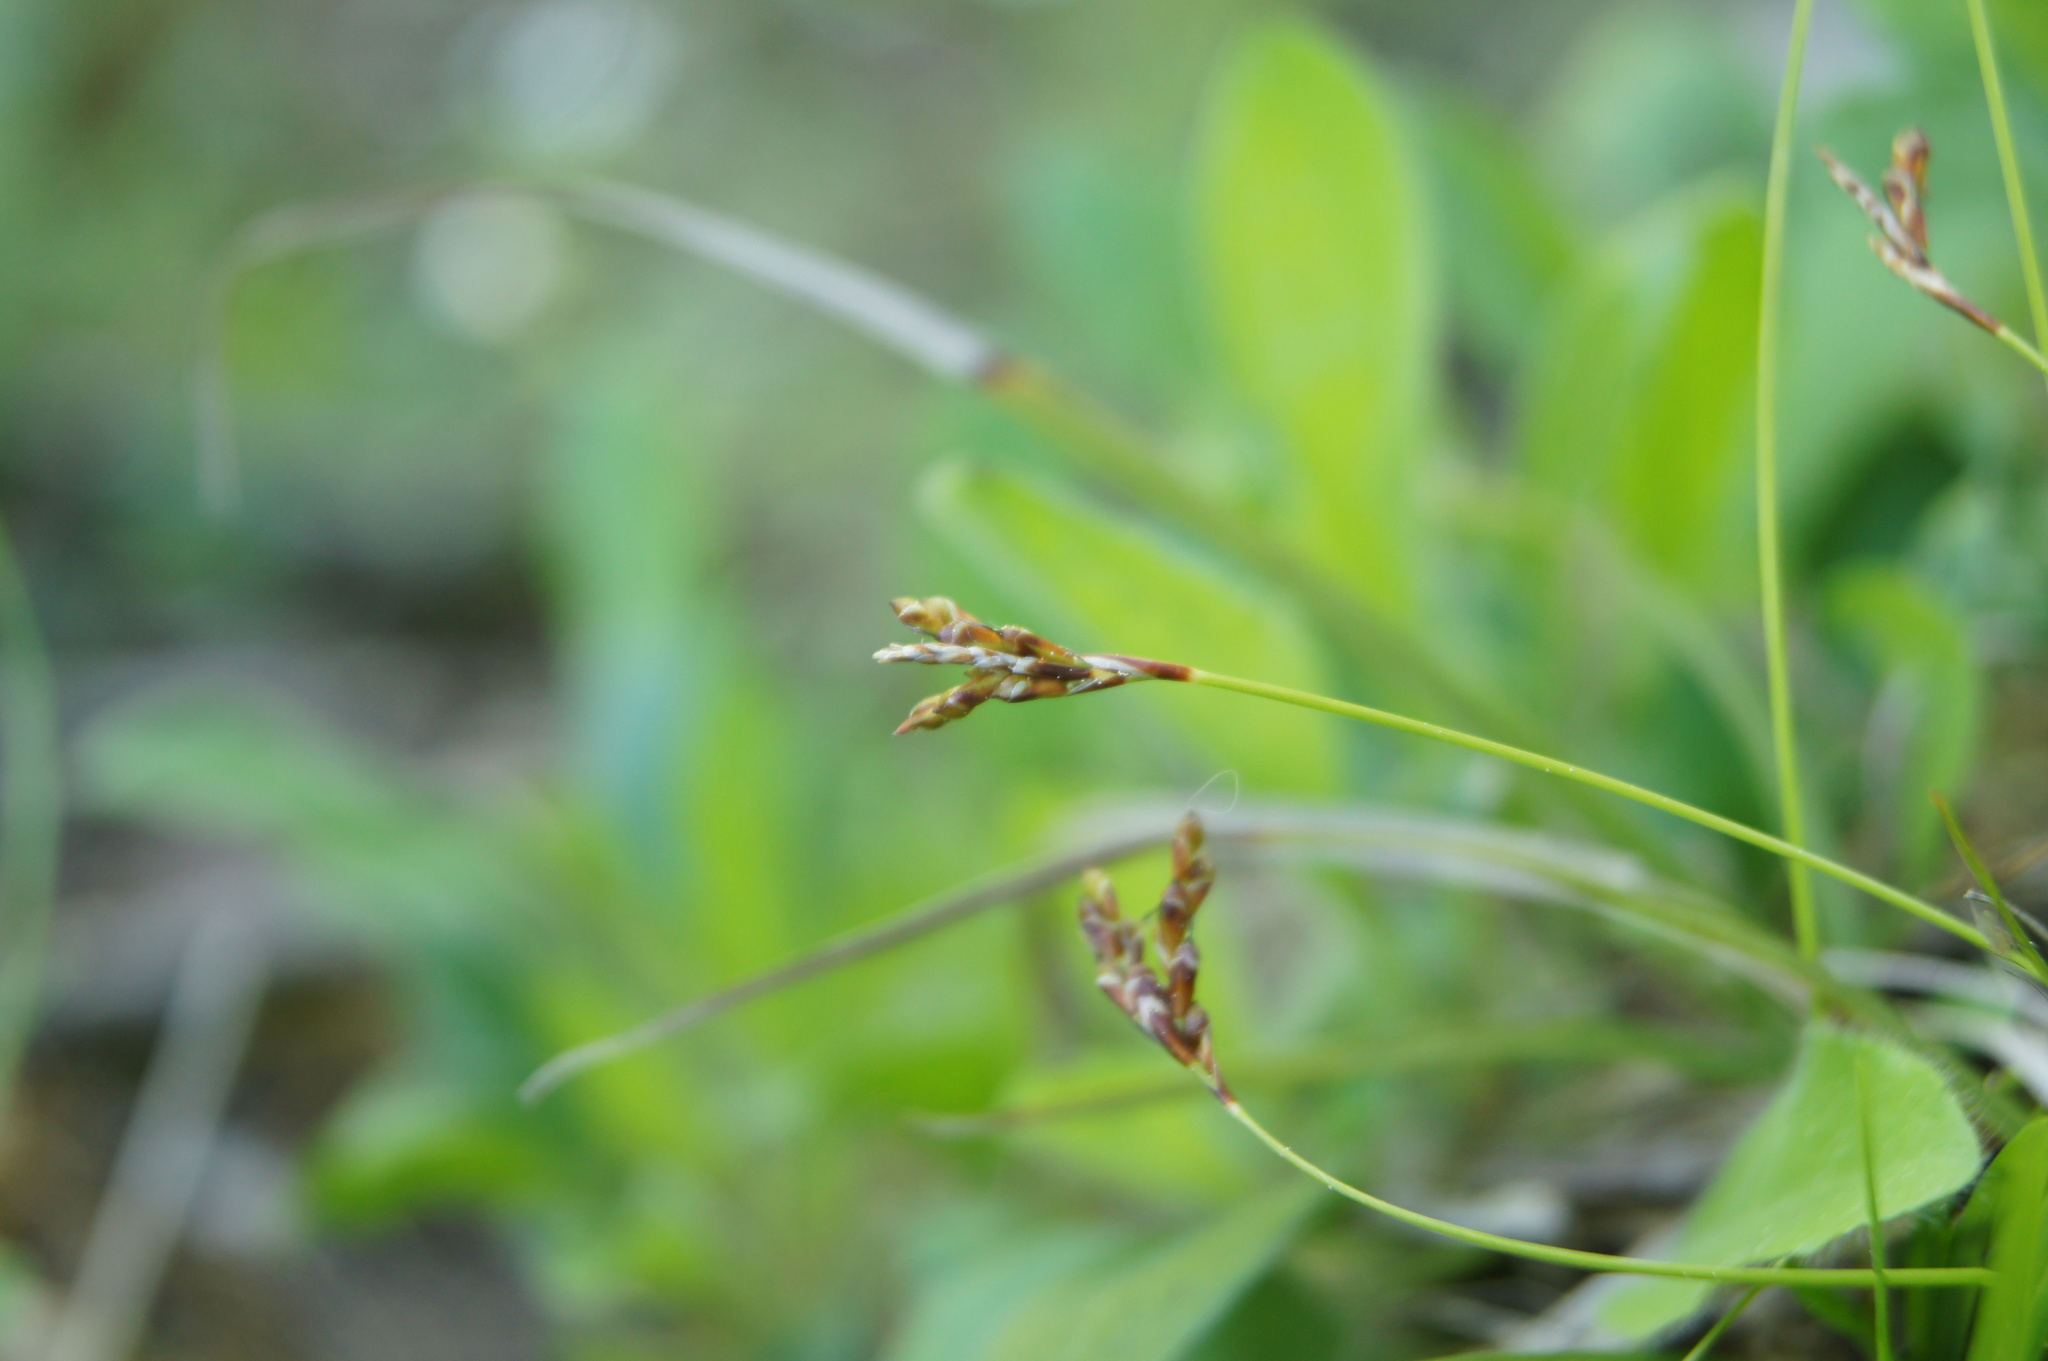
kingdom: Plantae
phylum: Tracheophyta
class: Liliopsida
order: Poales
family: Cyperaceae
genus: Carex
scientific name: Carex ornithopoda
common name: Bird's-foot sedge
